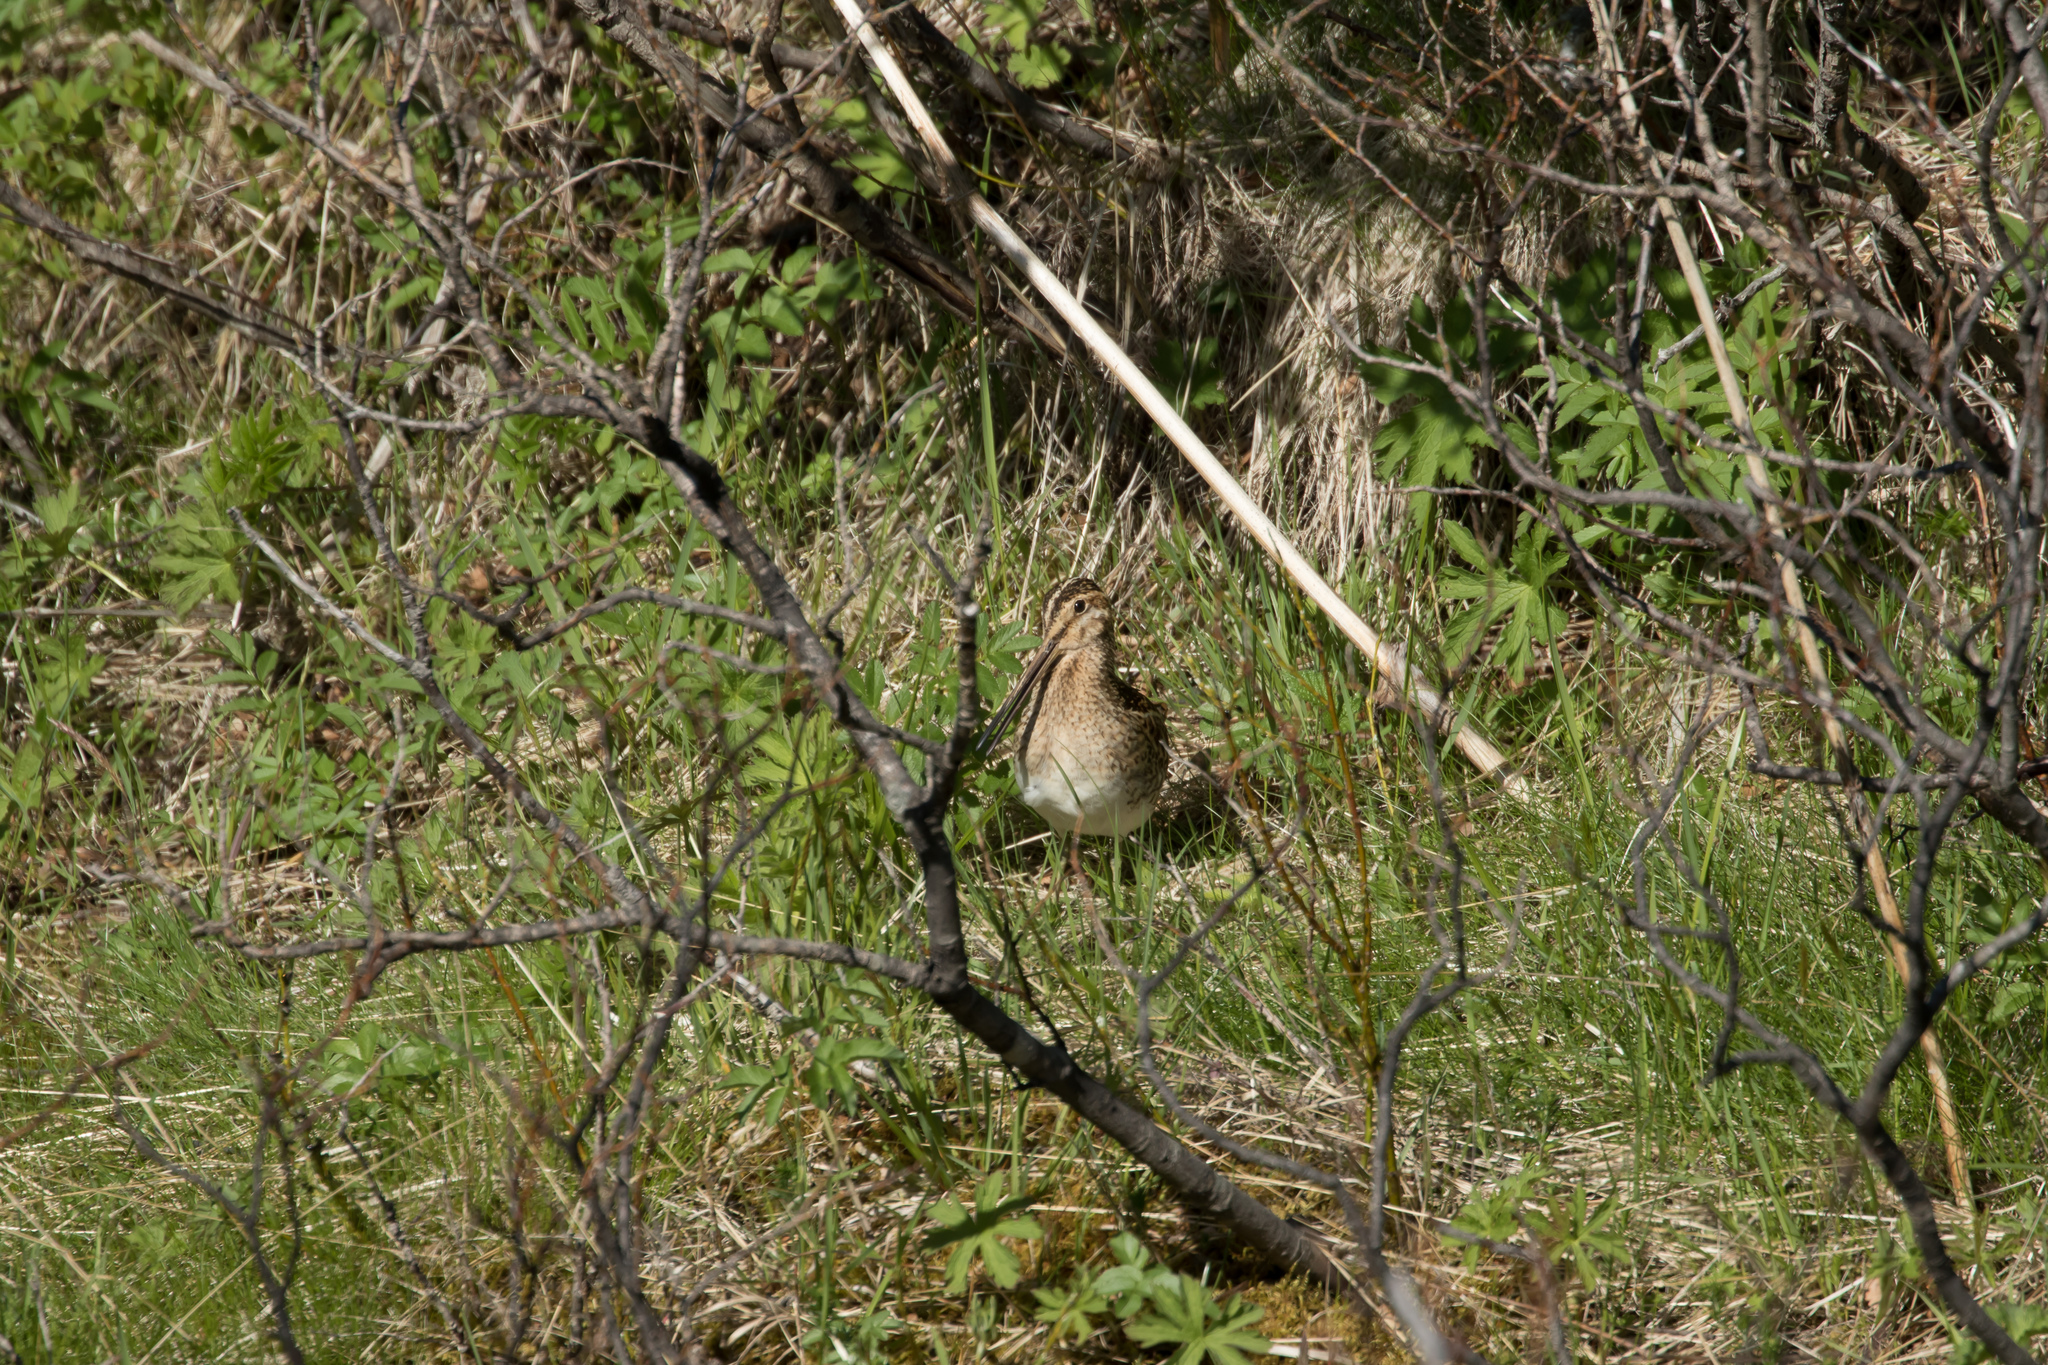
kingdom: Animalia
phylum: Chordata
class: Aves
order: Charadriiformes
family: Scolopacidae
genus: Gallinago
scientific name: Gallinago gallinago
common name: Common snipe
